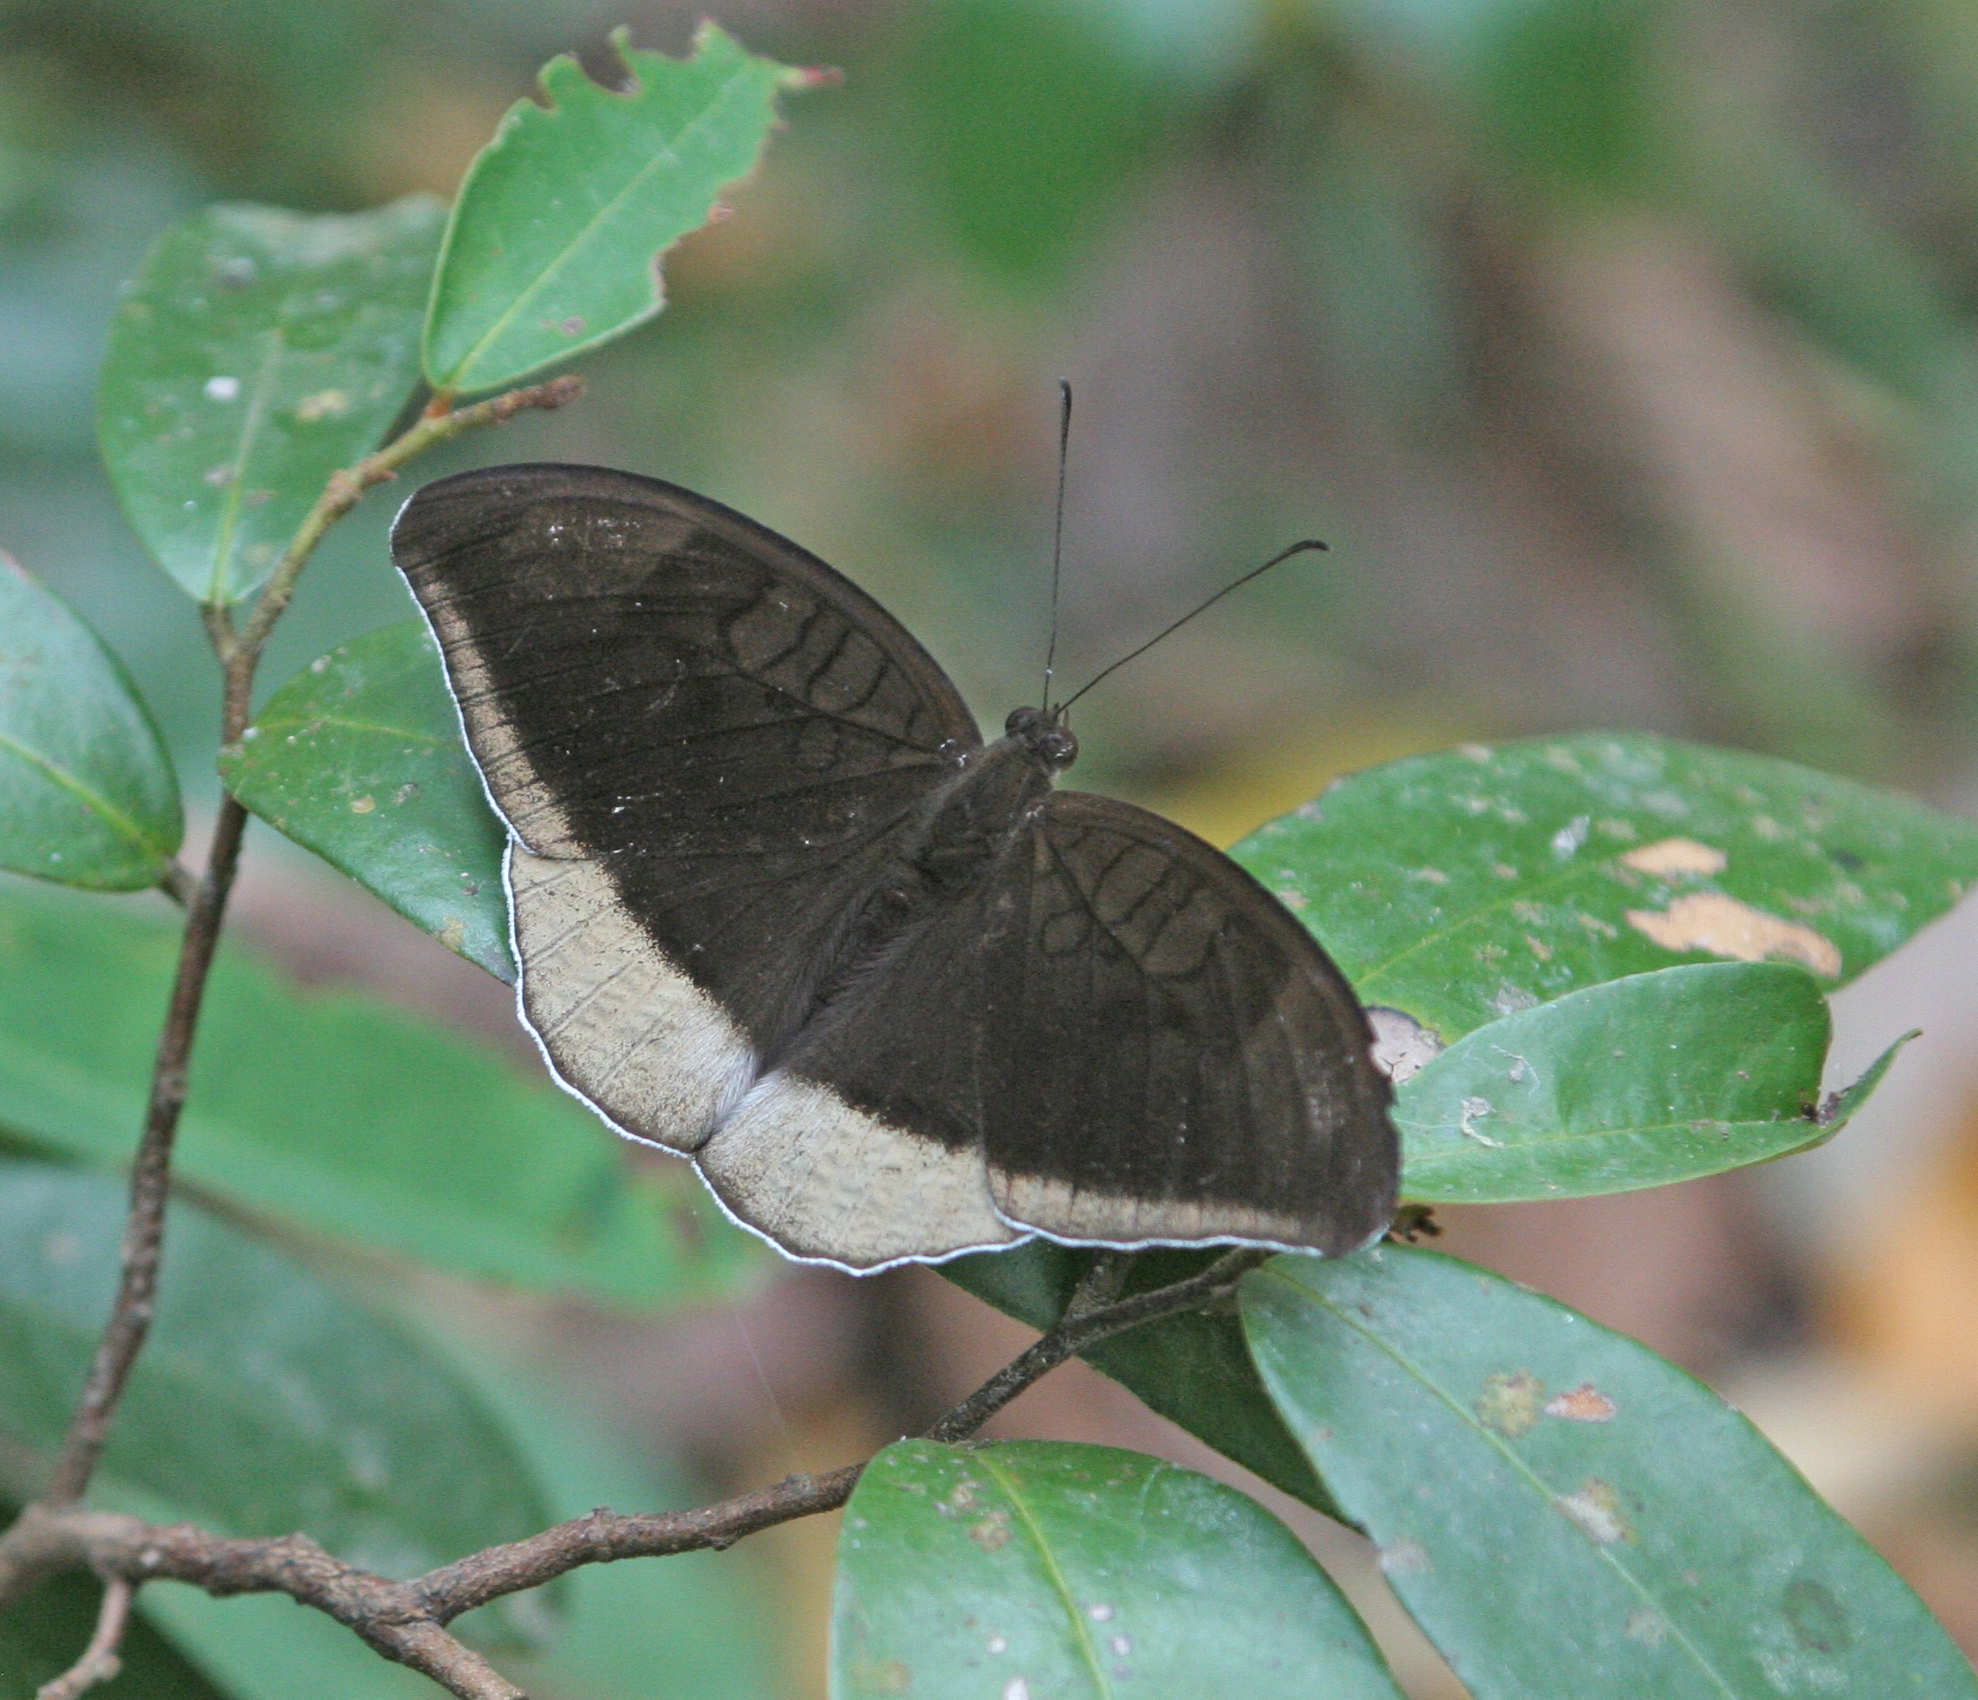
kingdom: Animalia
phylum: Arthropoda
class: Insecta
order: Lepidoptera
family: Nymphalidae
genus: Tanaecia
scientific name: Tanaecia lepidea
